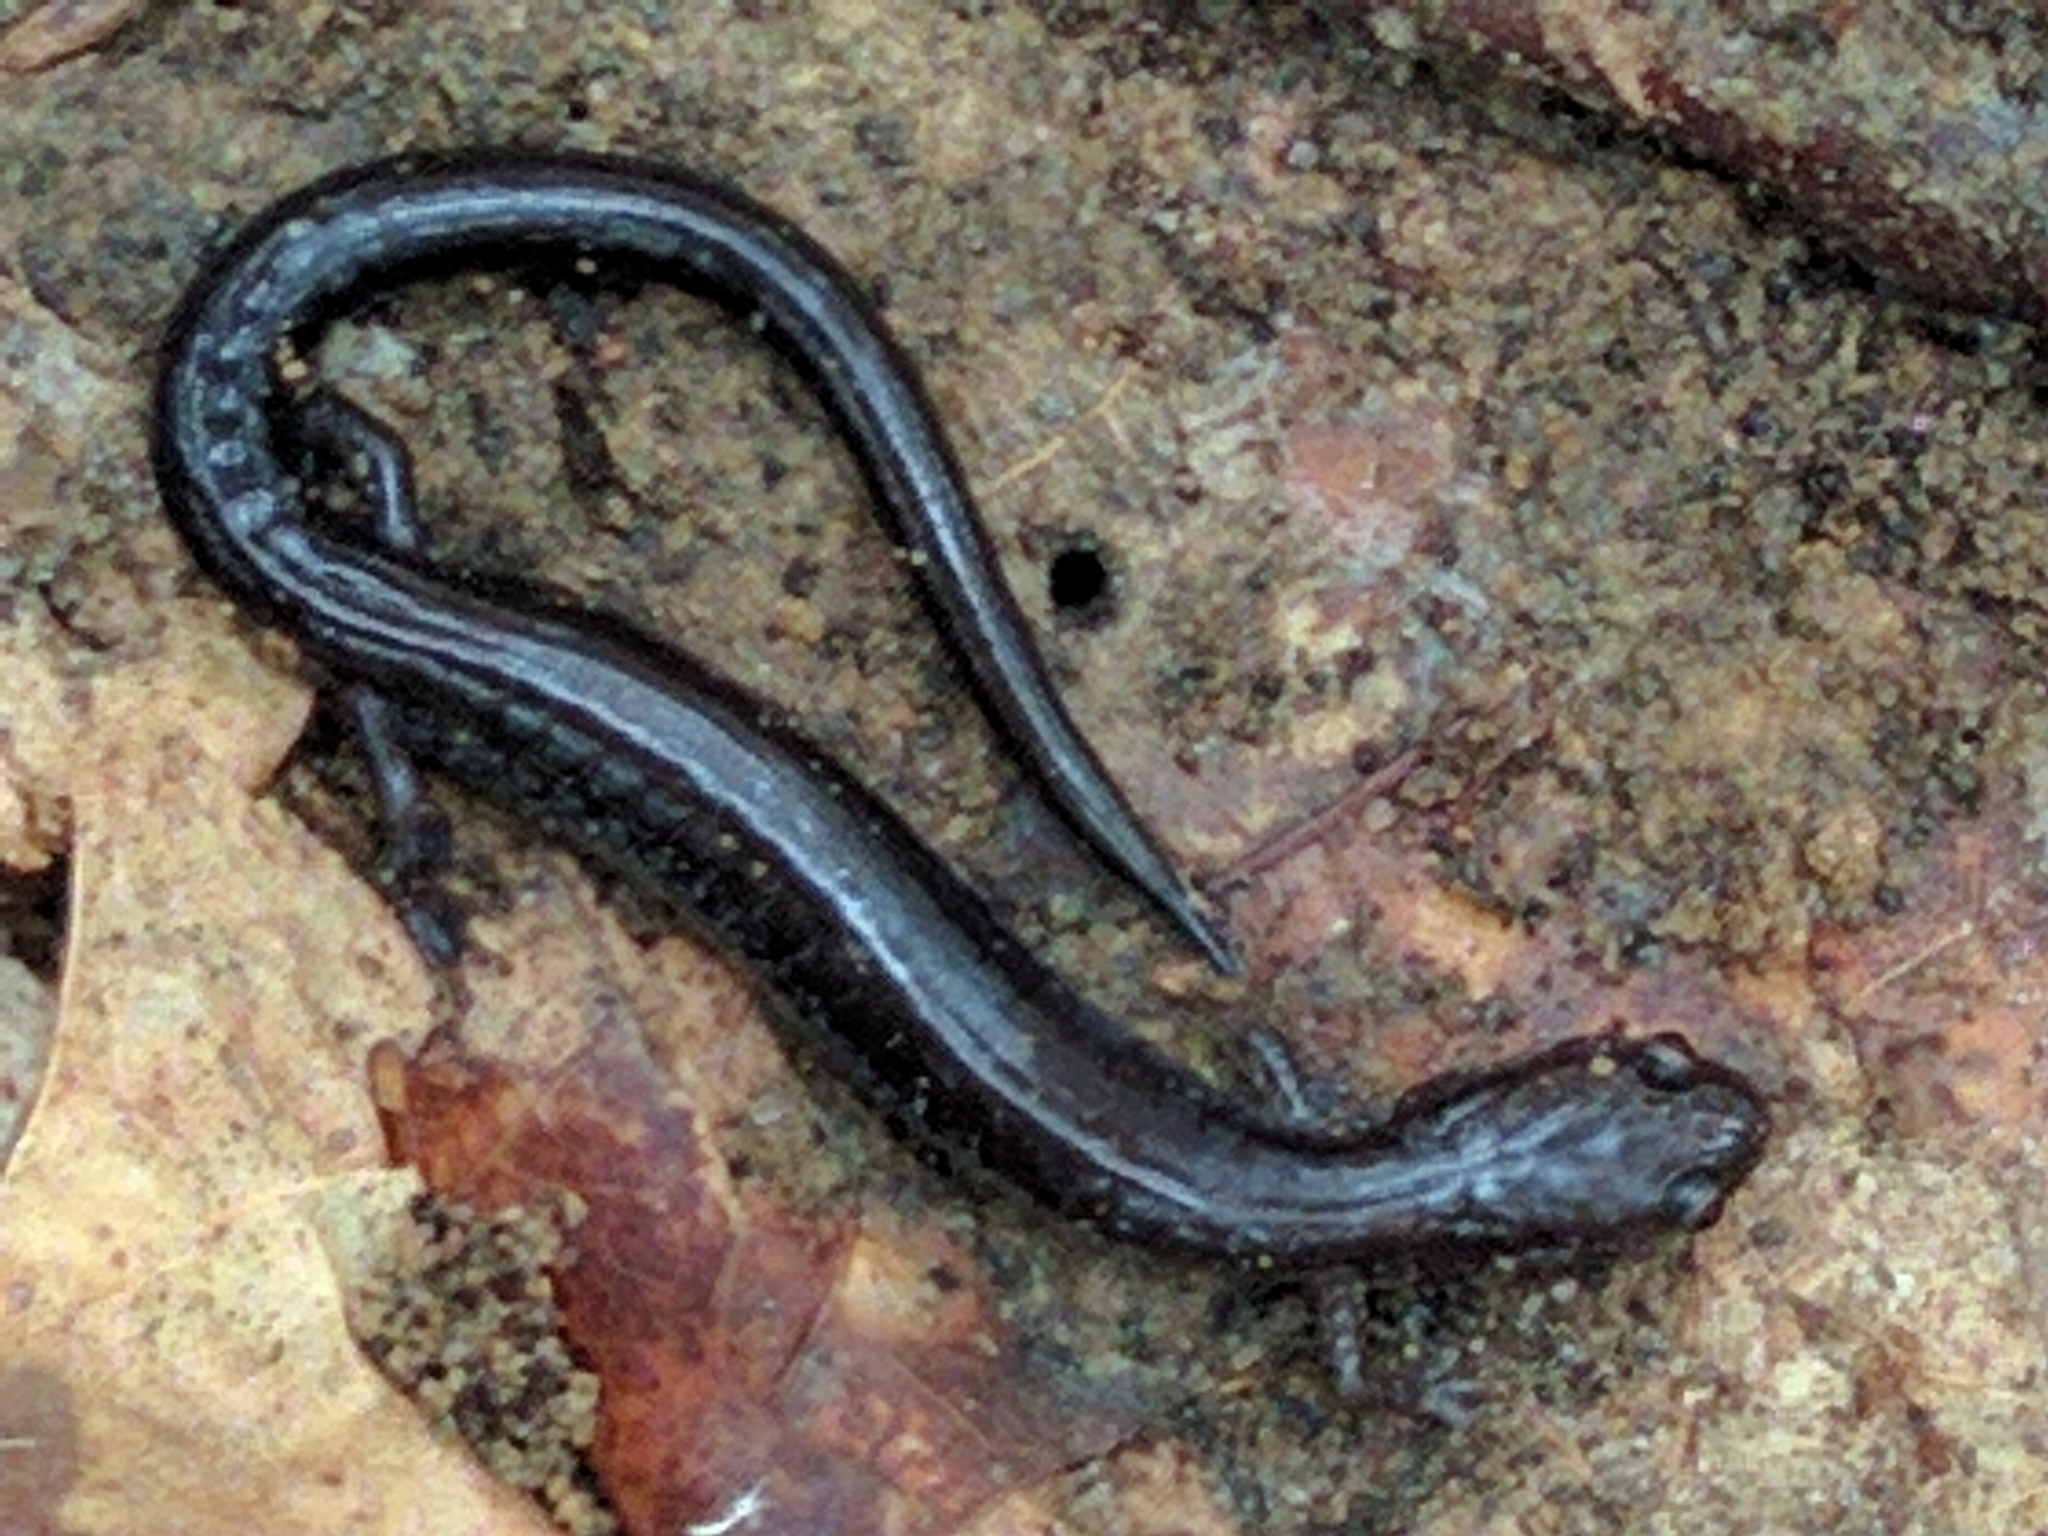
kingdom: Animalia
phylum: Chordata
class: Amphibia
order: Caudata
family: Plethodontidae
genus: Plethodon
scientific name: Plethodon cinereus
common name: Redback salamander
